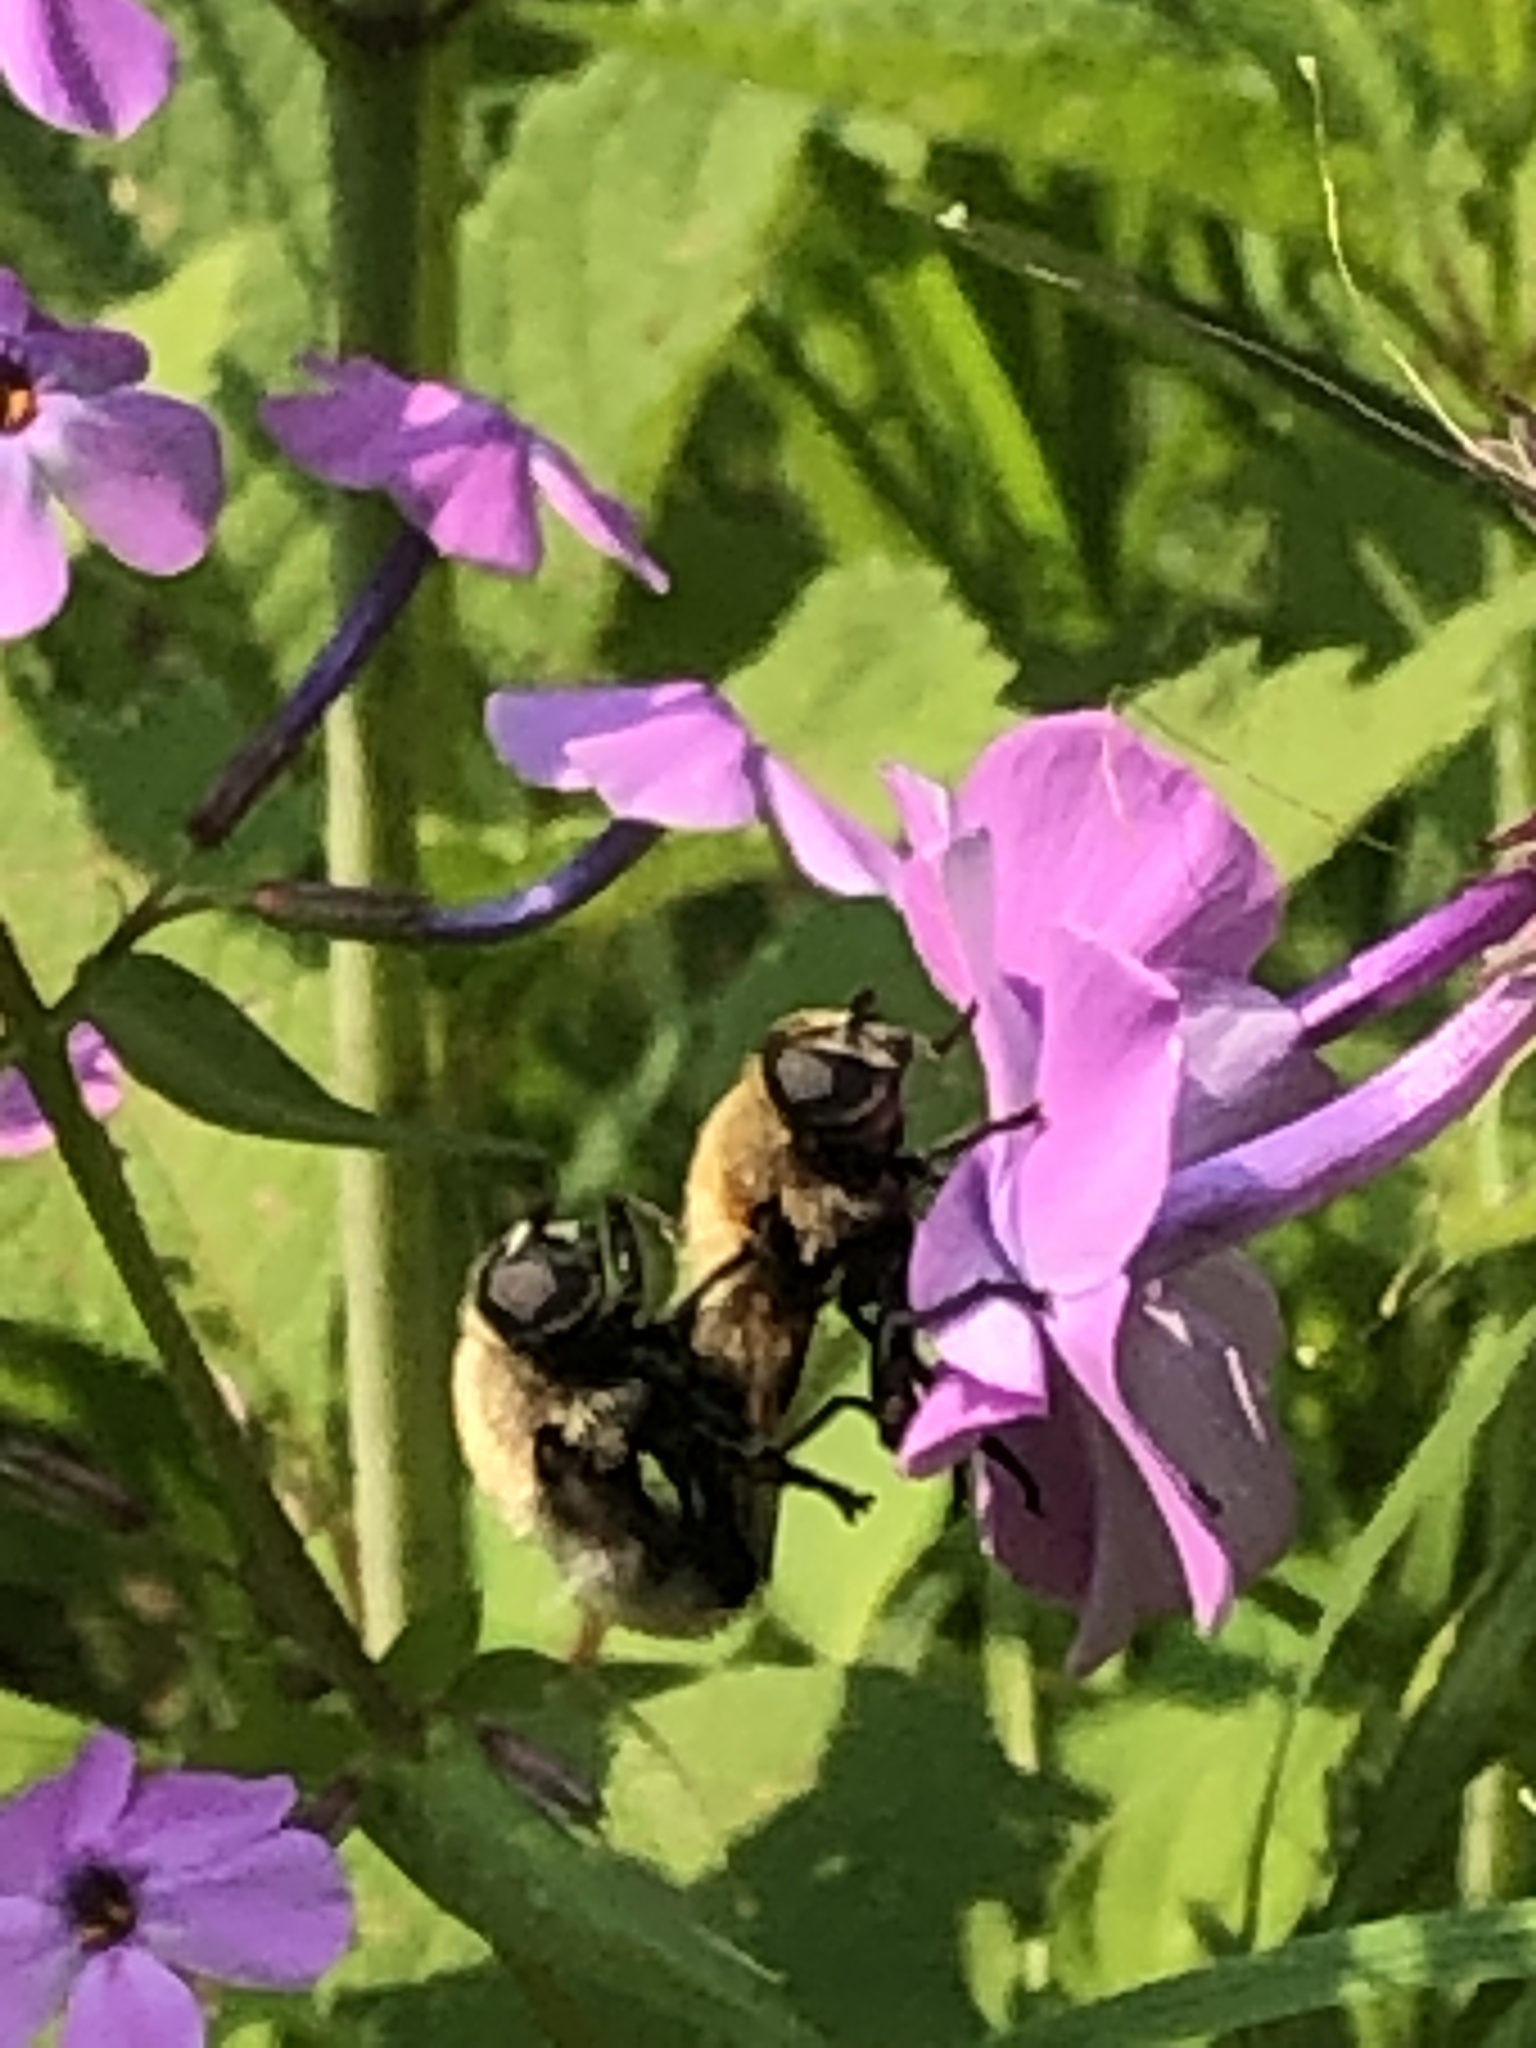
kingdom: Animalia
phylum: Arthropoda
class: Insecta
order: Diptera
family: Syrphidae
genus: Merodon
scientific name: Merodon equestris
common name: Greater bulb-fly
